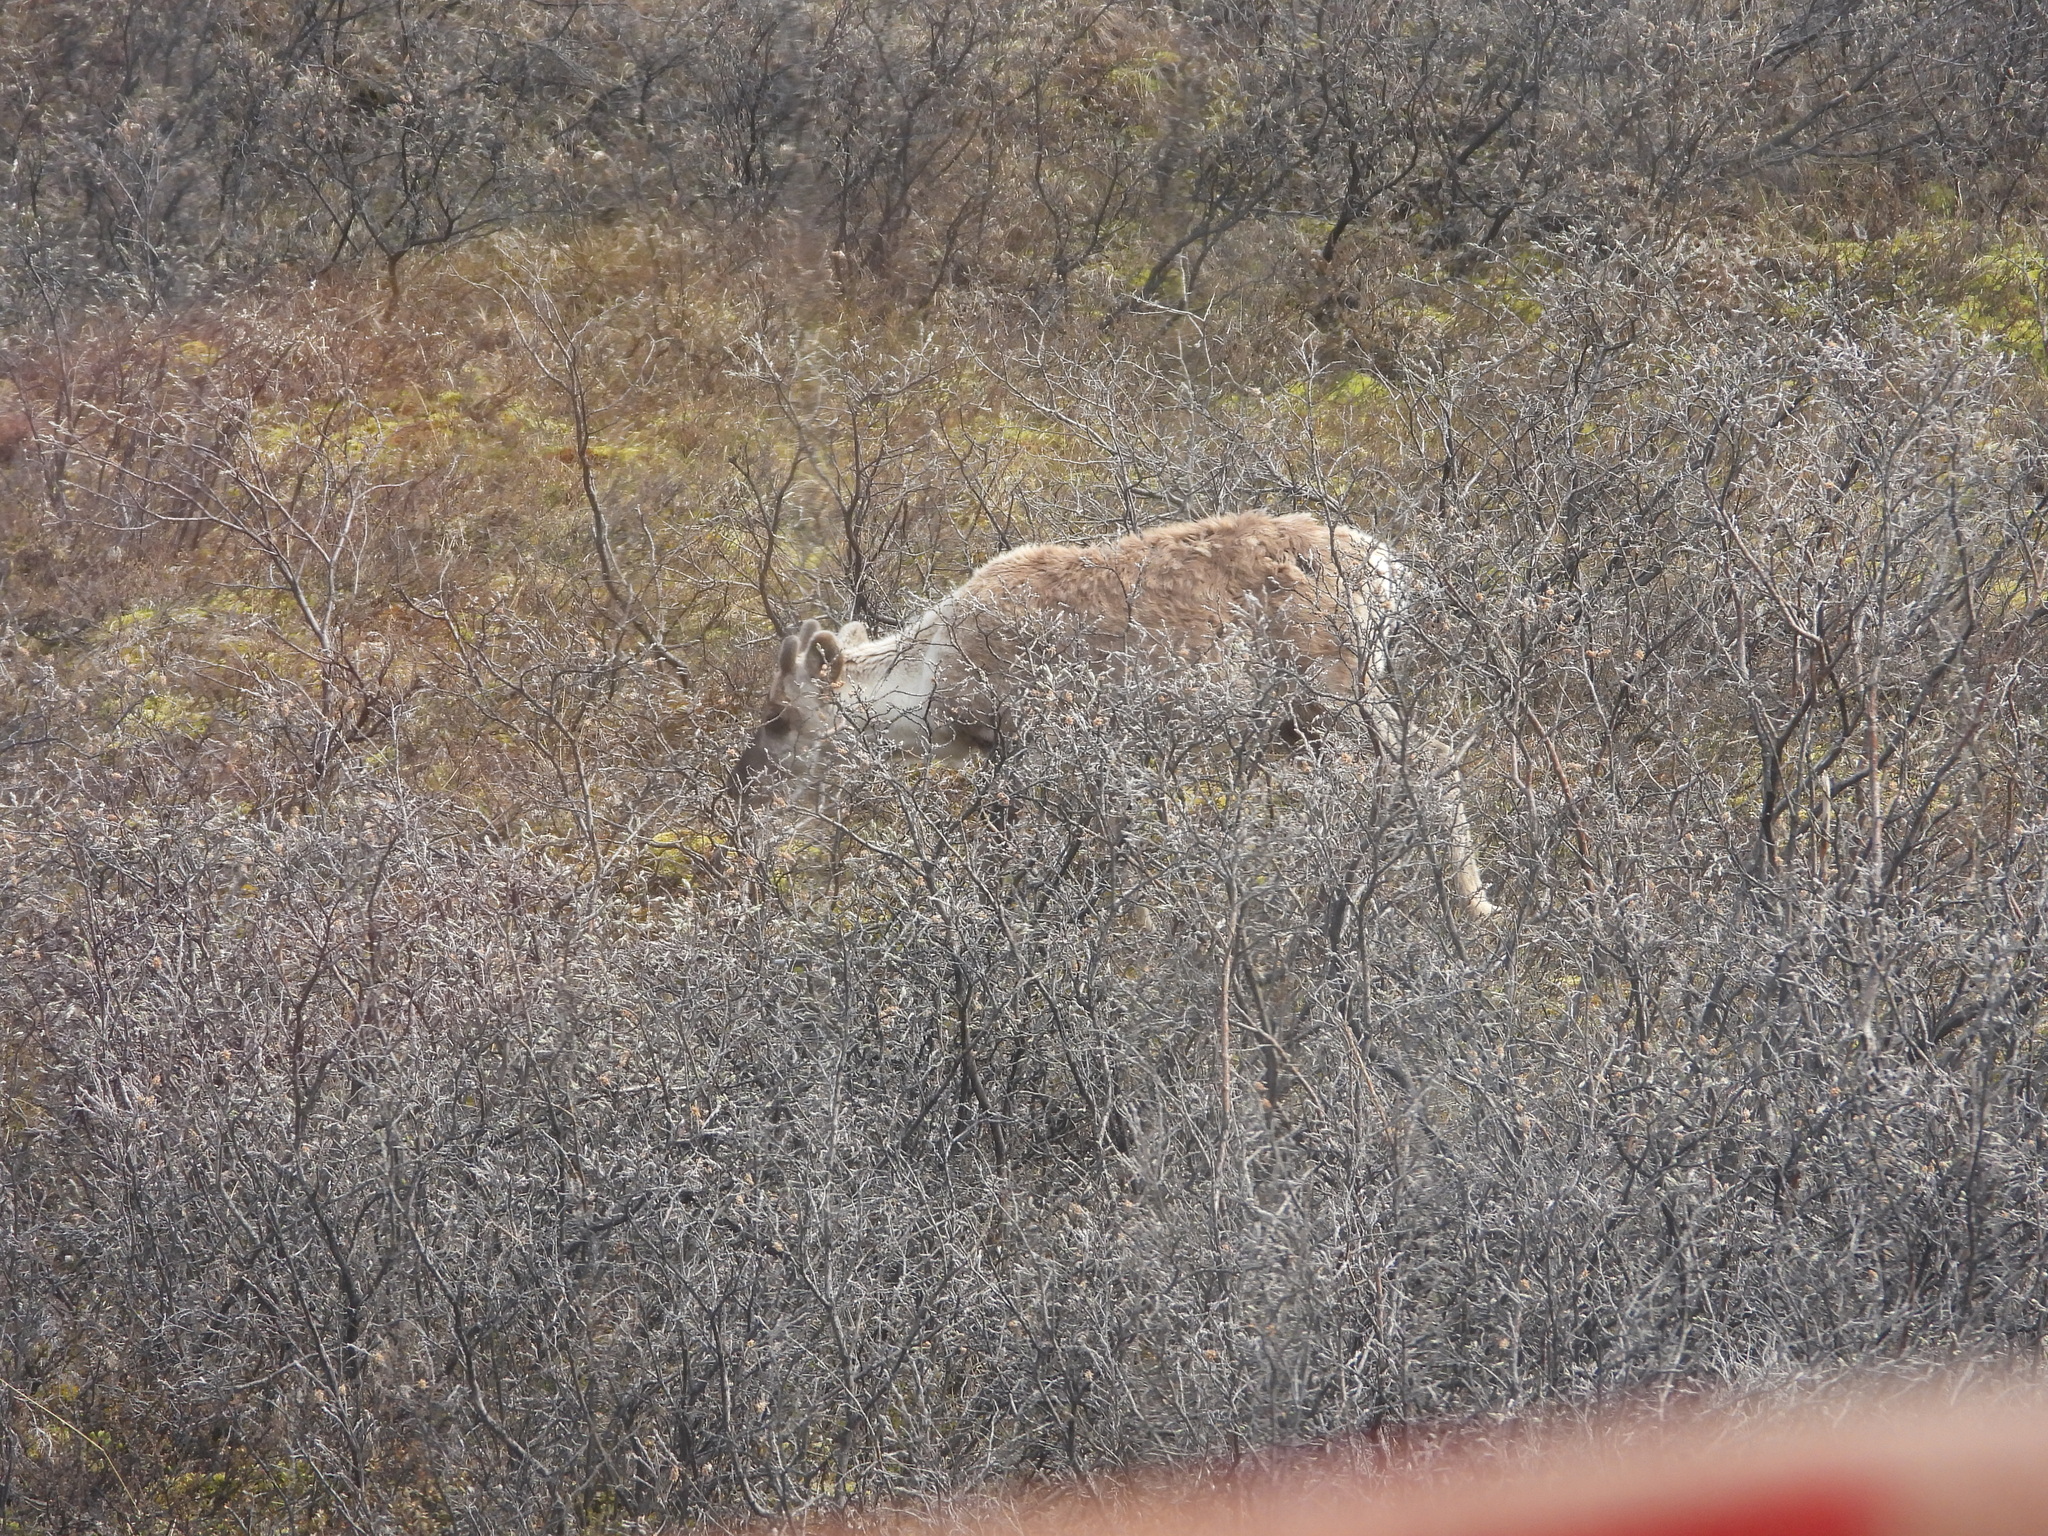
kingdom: Animalia
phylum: Chordata
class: Mammalia
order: Artiodactyla
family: Cervidae
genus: Rangifer
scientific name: Rangifer tarandus
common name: Reindeer
